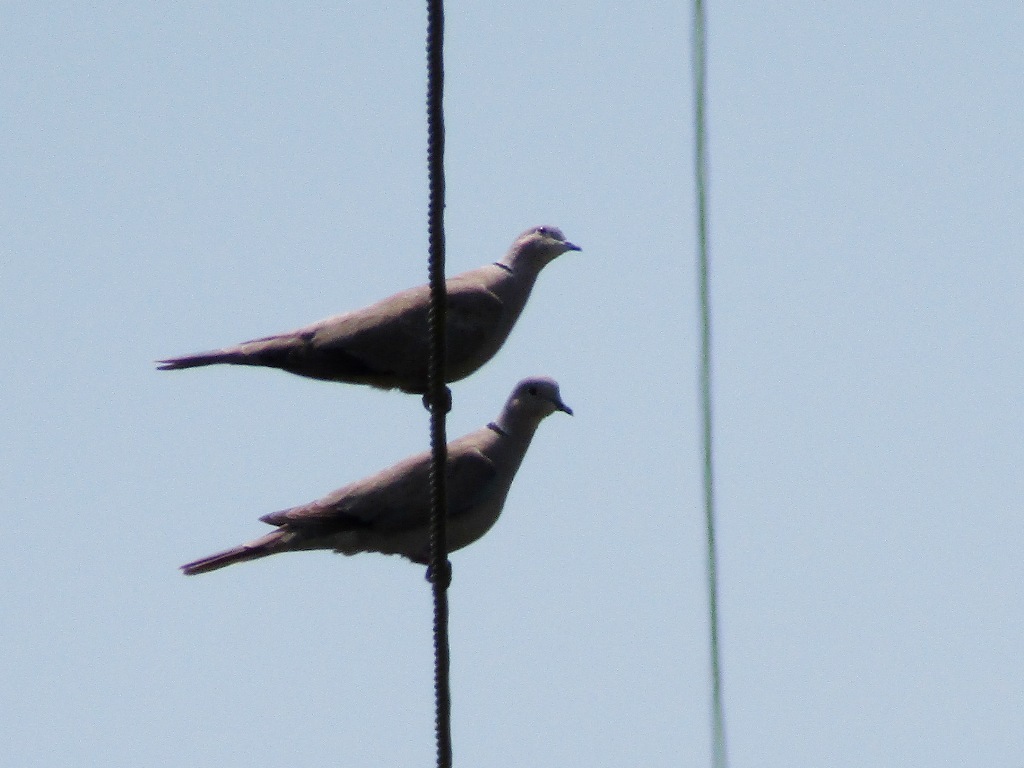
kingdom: Animalia
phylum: Chordata
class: Aves
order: Columbiformes
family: Columbidae
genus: Streptopelia
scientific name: Streptopelia decaocto
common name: Eurasian collared dove
